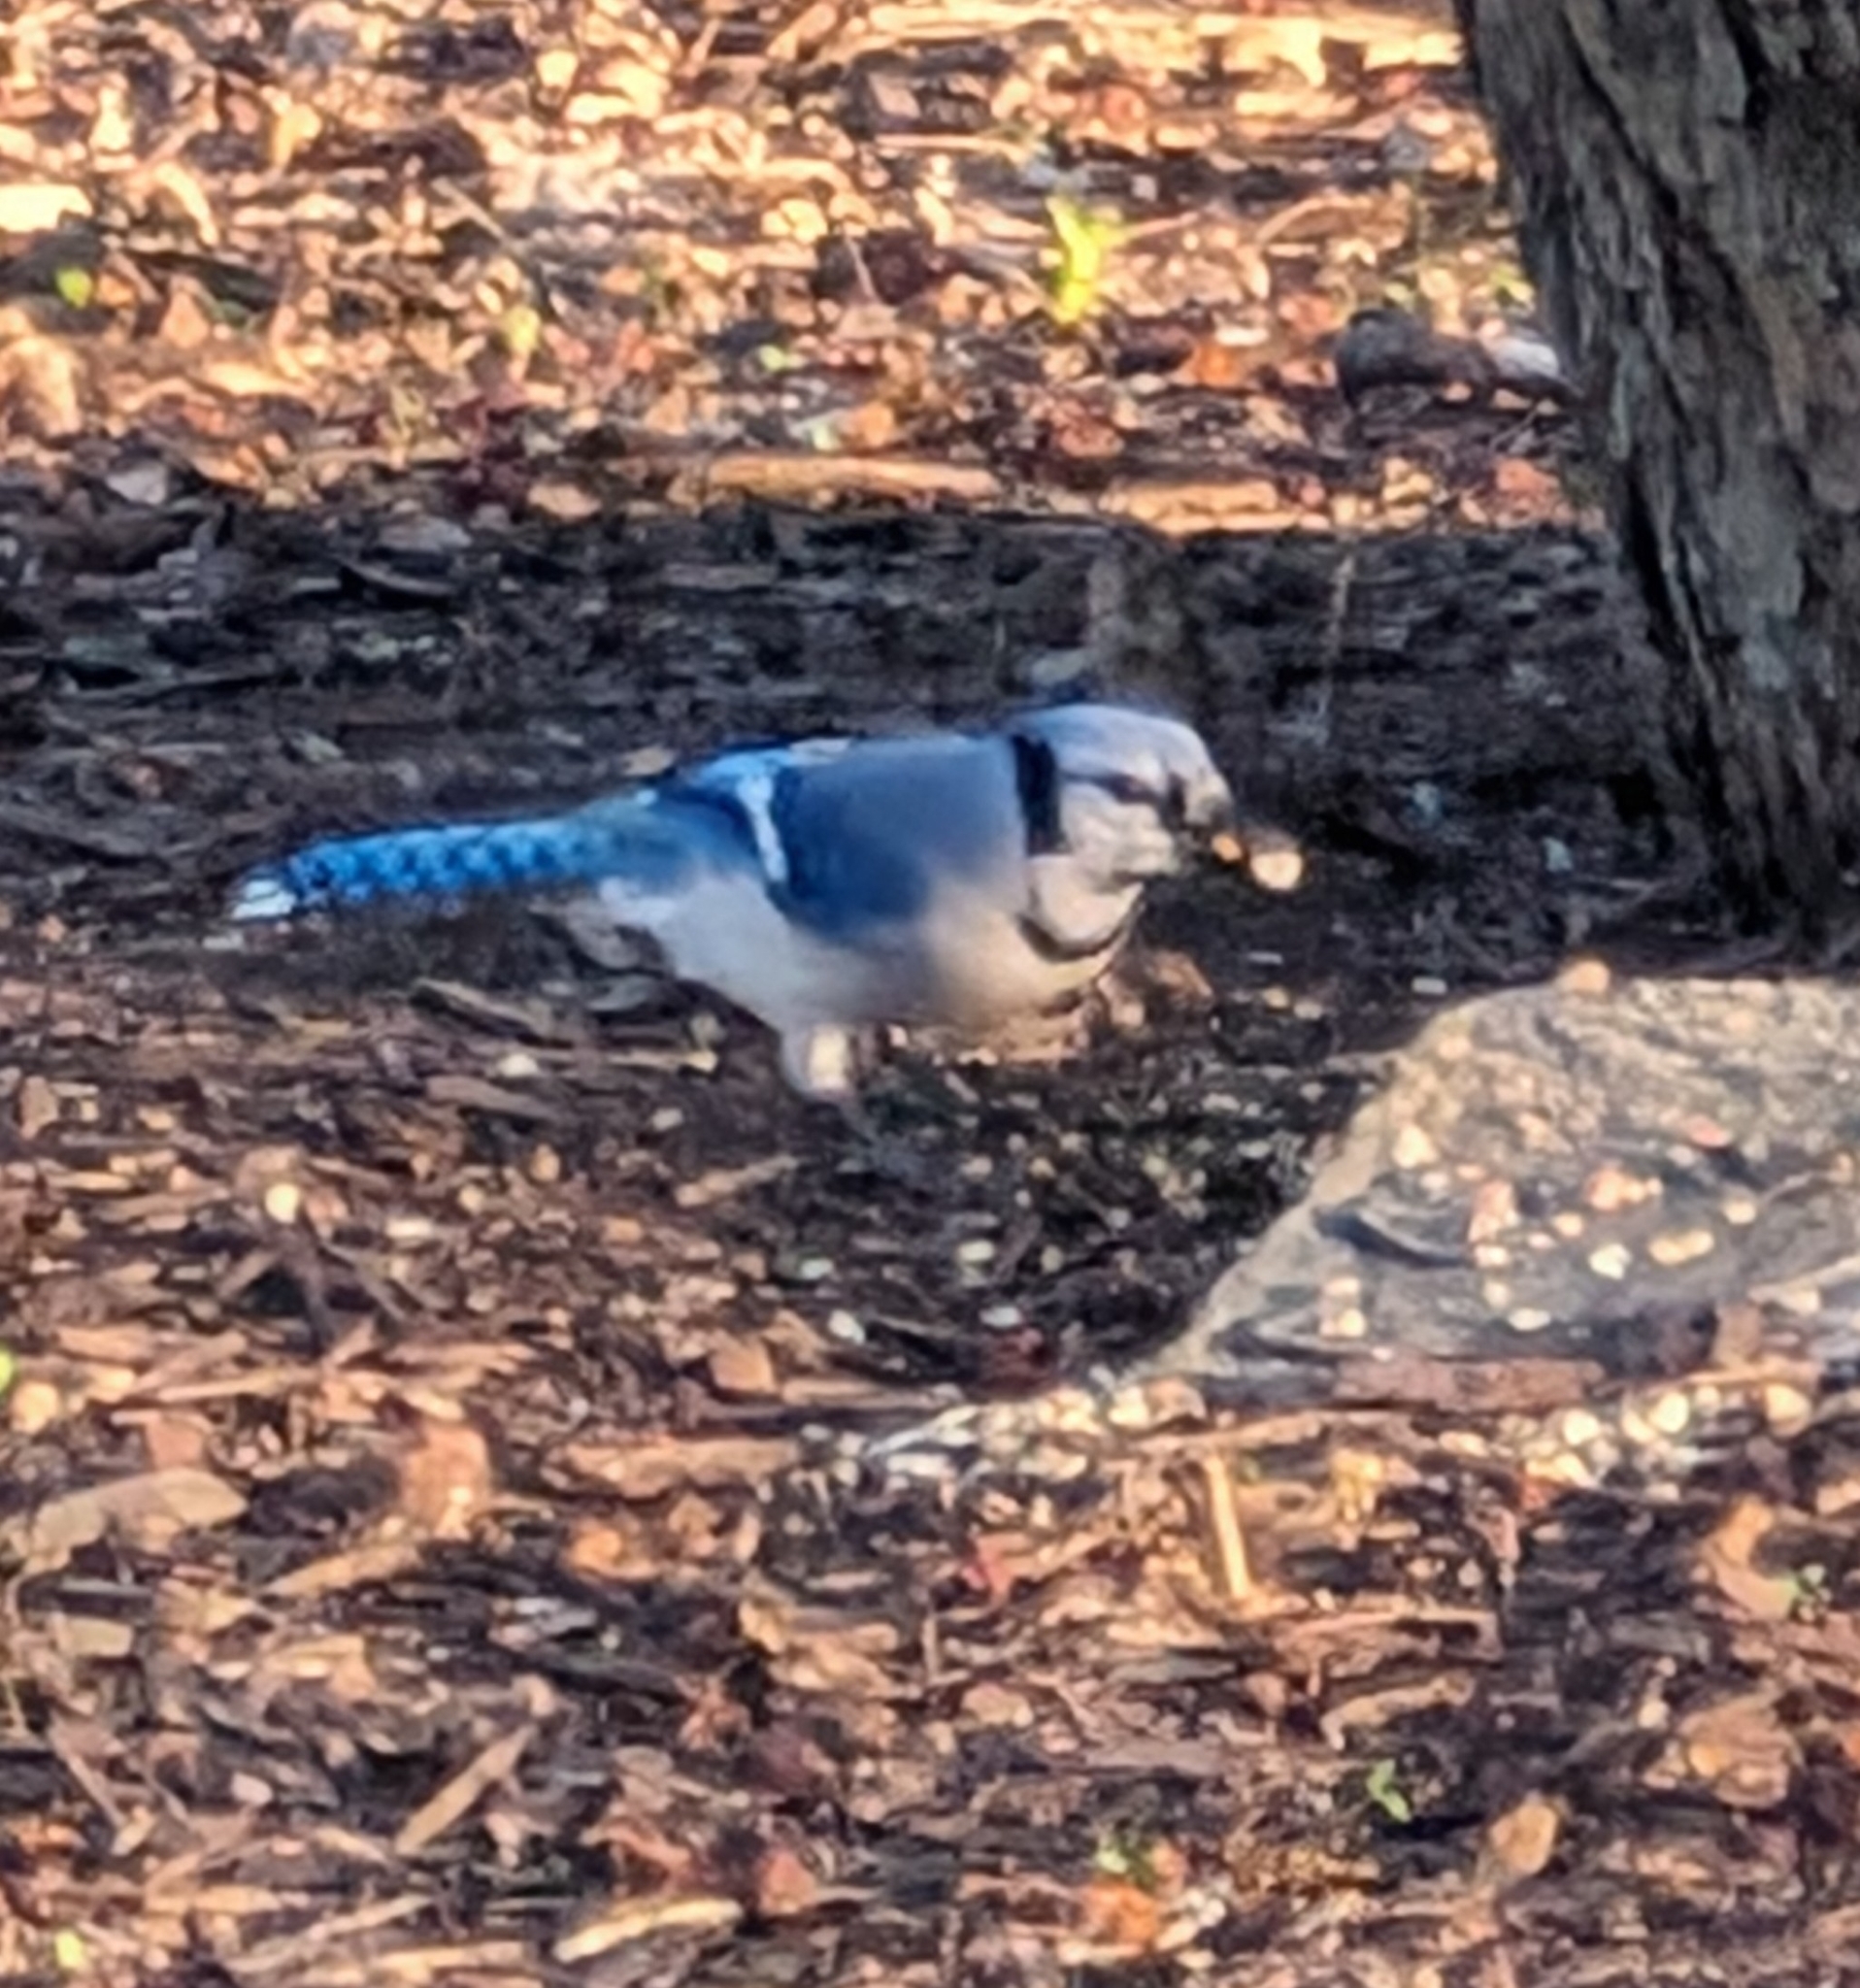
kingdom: Animalia
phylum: Chordata
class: Aves
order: Passeriformes
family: Corvidae
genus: Cyanocitta
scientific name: Cyanocitta cristata
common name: Blue jay
